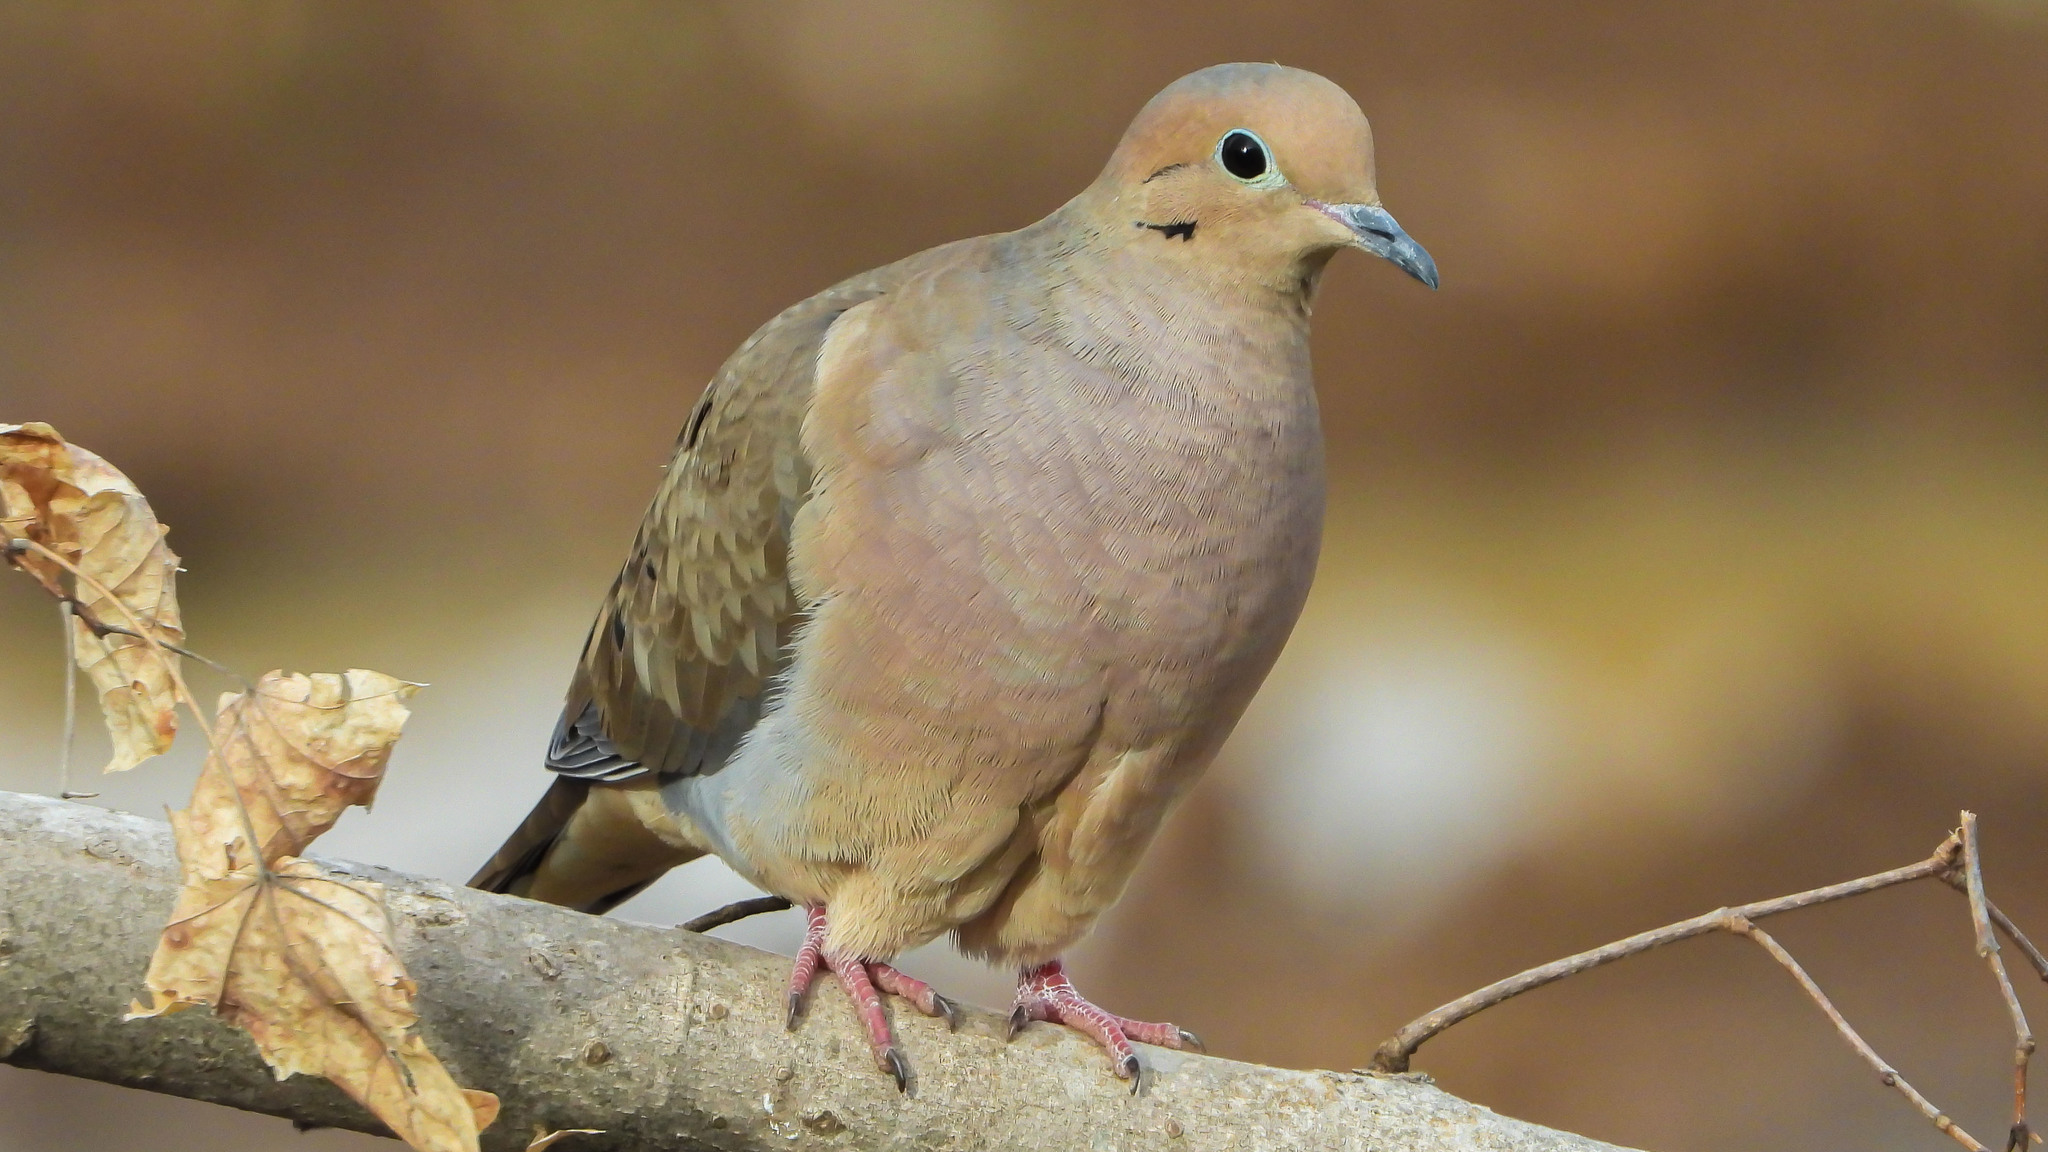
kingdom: Animalia
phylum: Chordata
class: Aves
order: Columbiformes
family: Columbidae
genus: Zenaida
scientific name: Zenaida macroura
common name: Mourning dove
